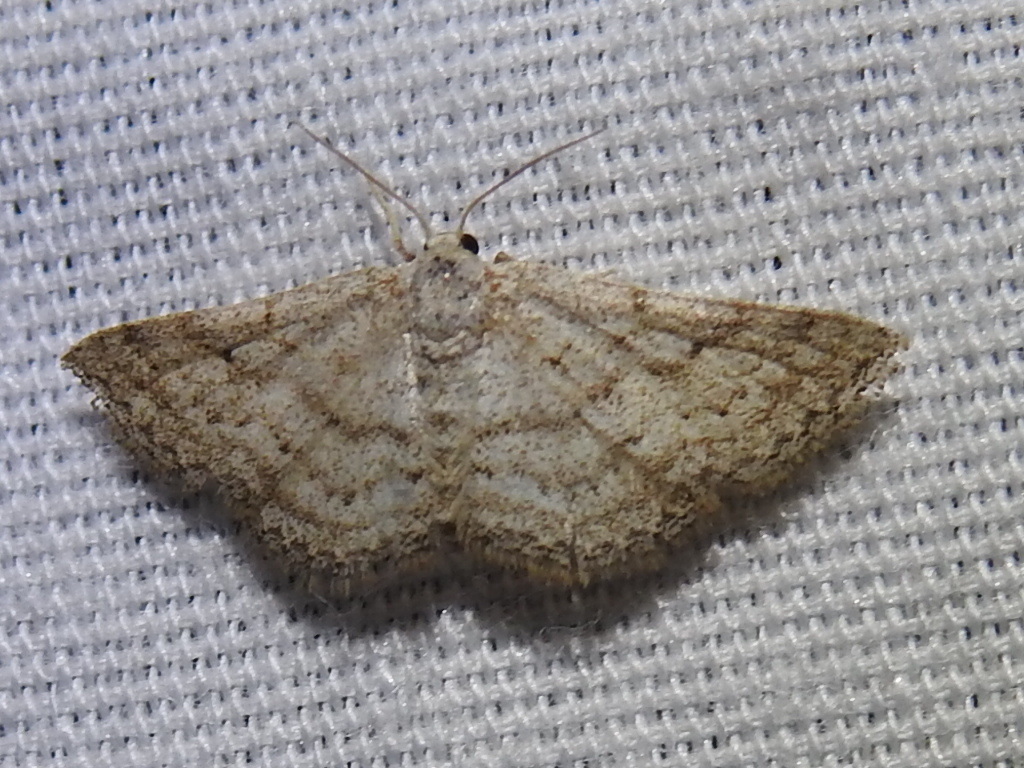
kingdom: Animalia
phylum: Arthropoda
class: Insecta
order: Lepidoptera
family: Geometridae
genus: Lobocleta
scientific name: Lobocleta ossularia
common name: Drab brown wave
